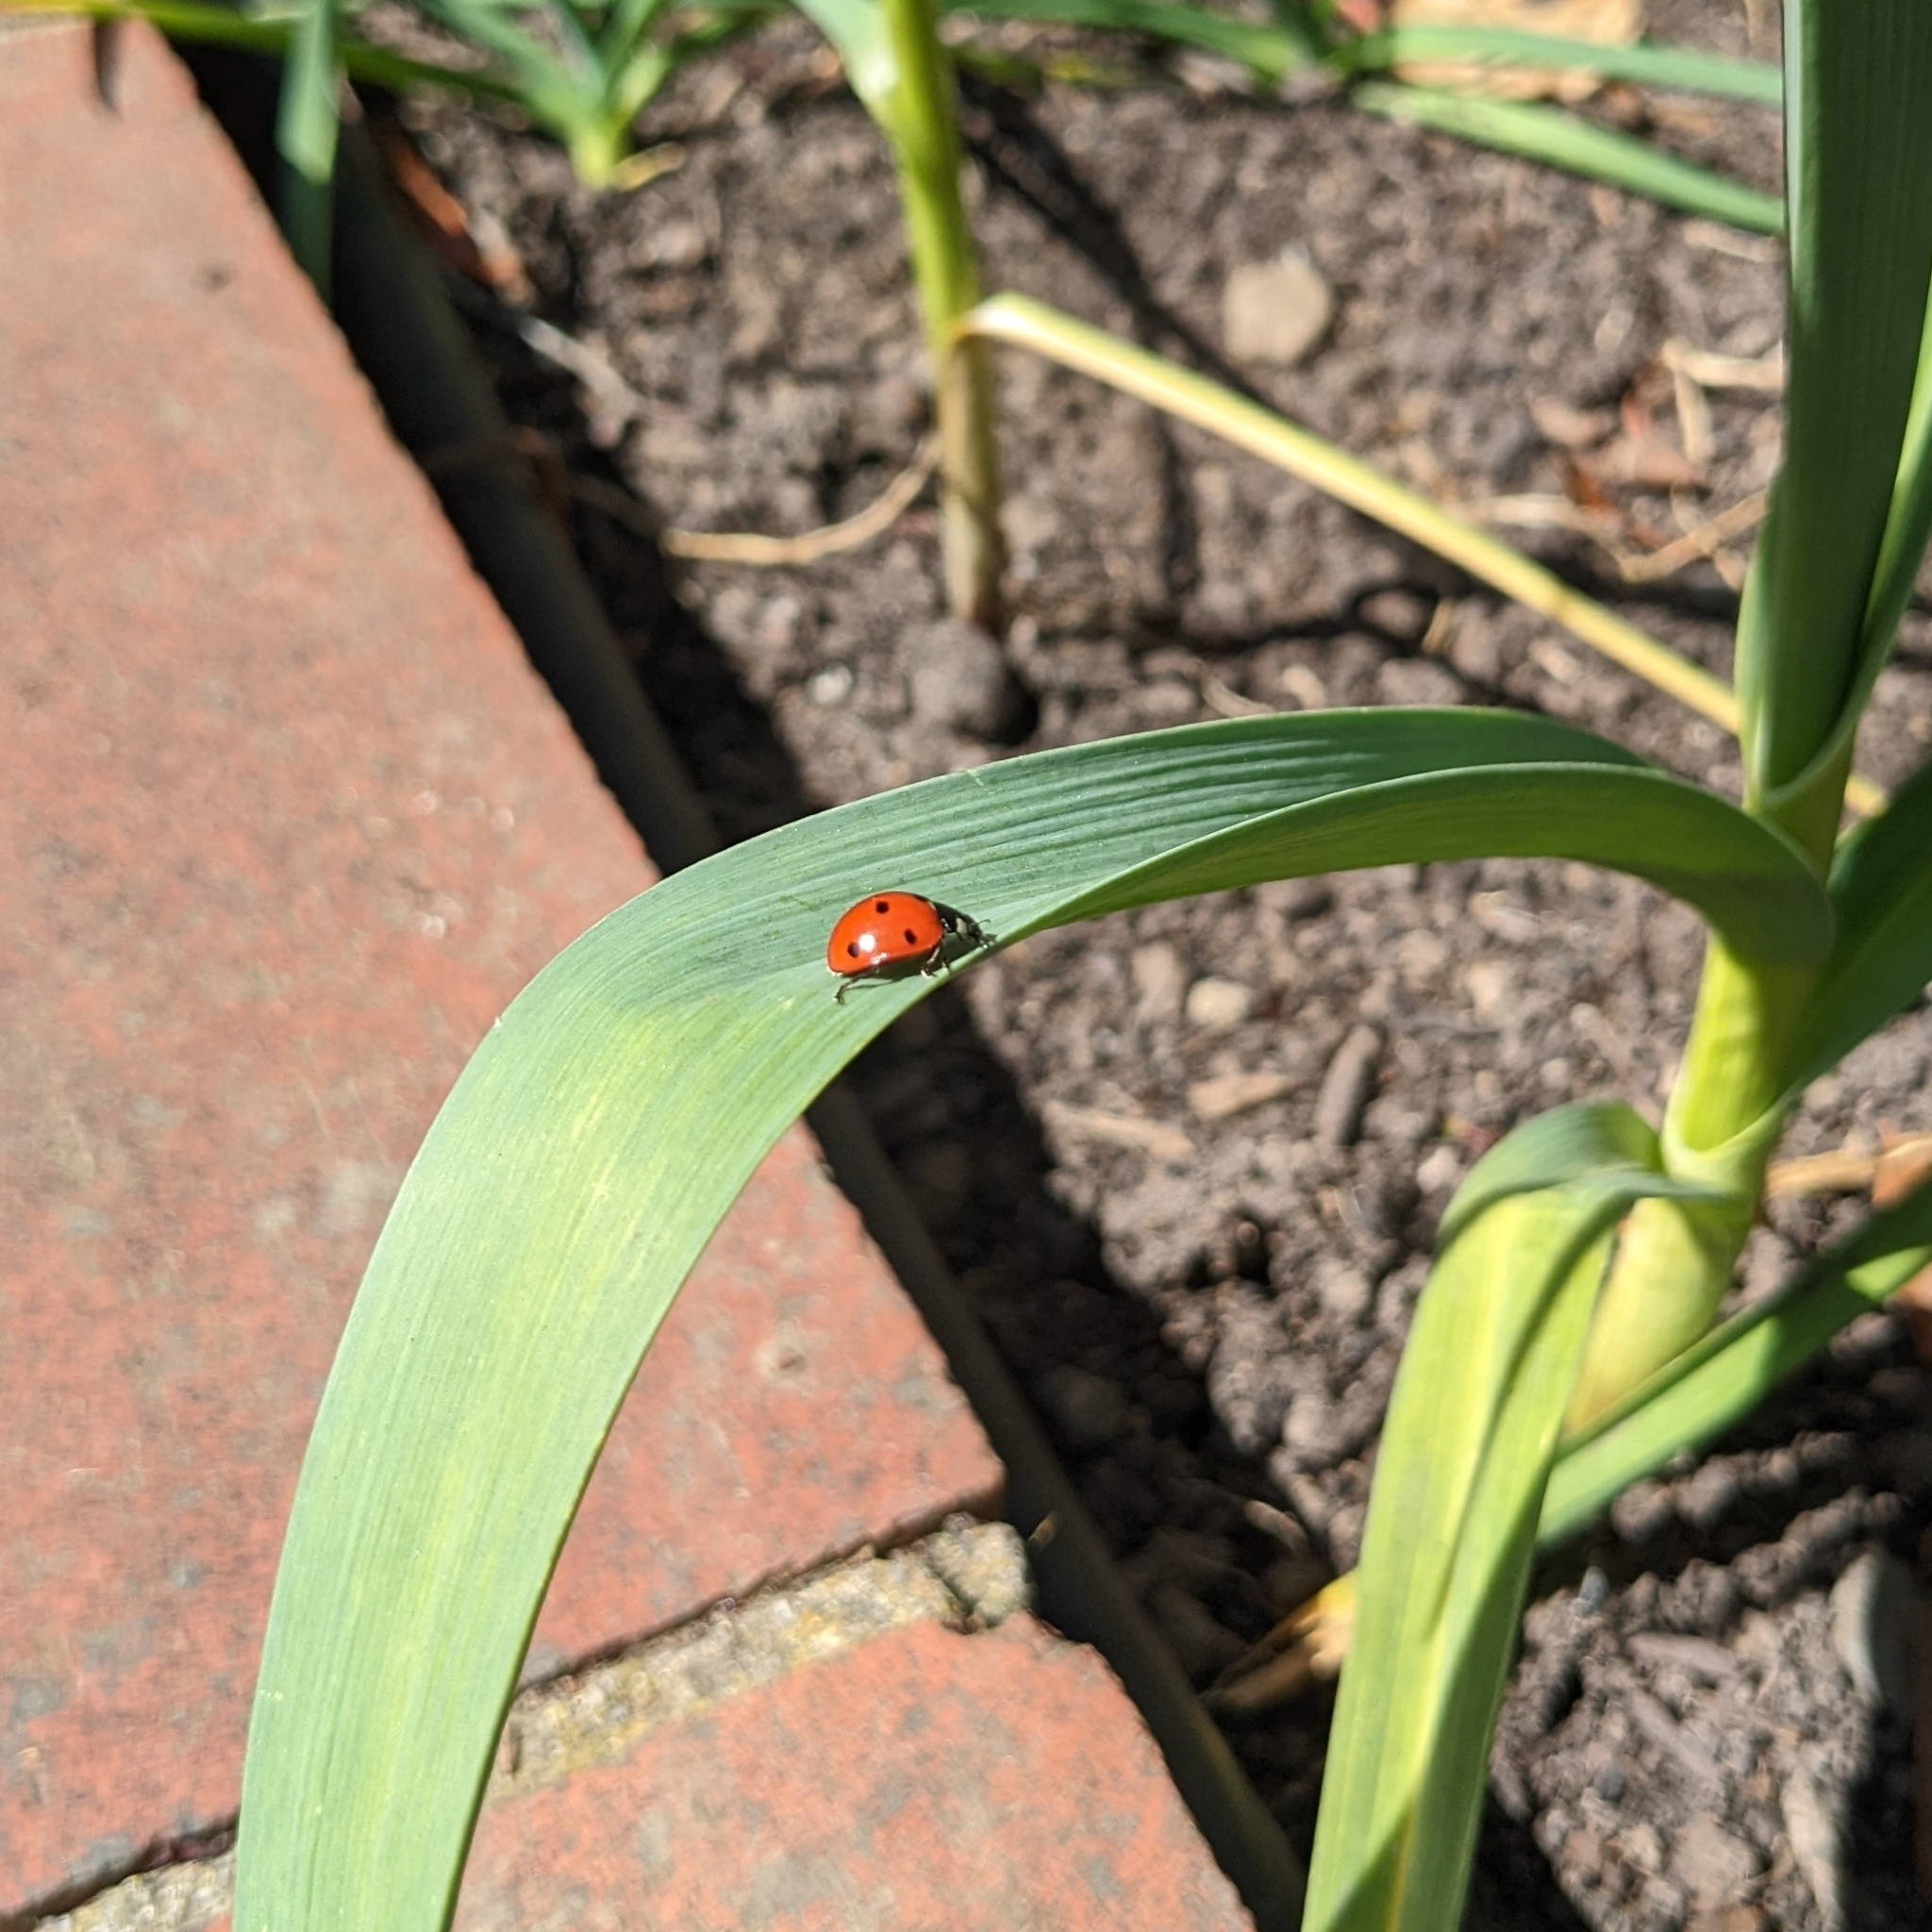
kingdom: Animalia
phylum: Arthropoda
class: Insecta
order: Coleoptera
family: Coccinellidae
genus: Coccinella
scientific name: Coccinella septempunctata
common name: Sevenspotted lady beetle
